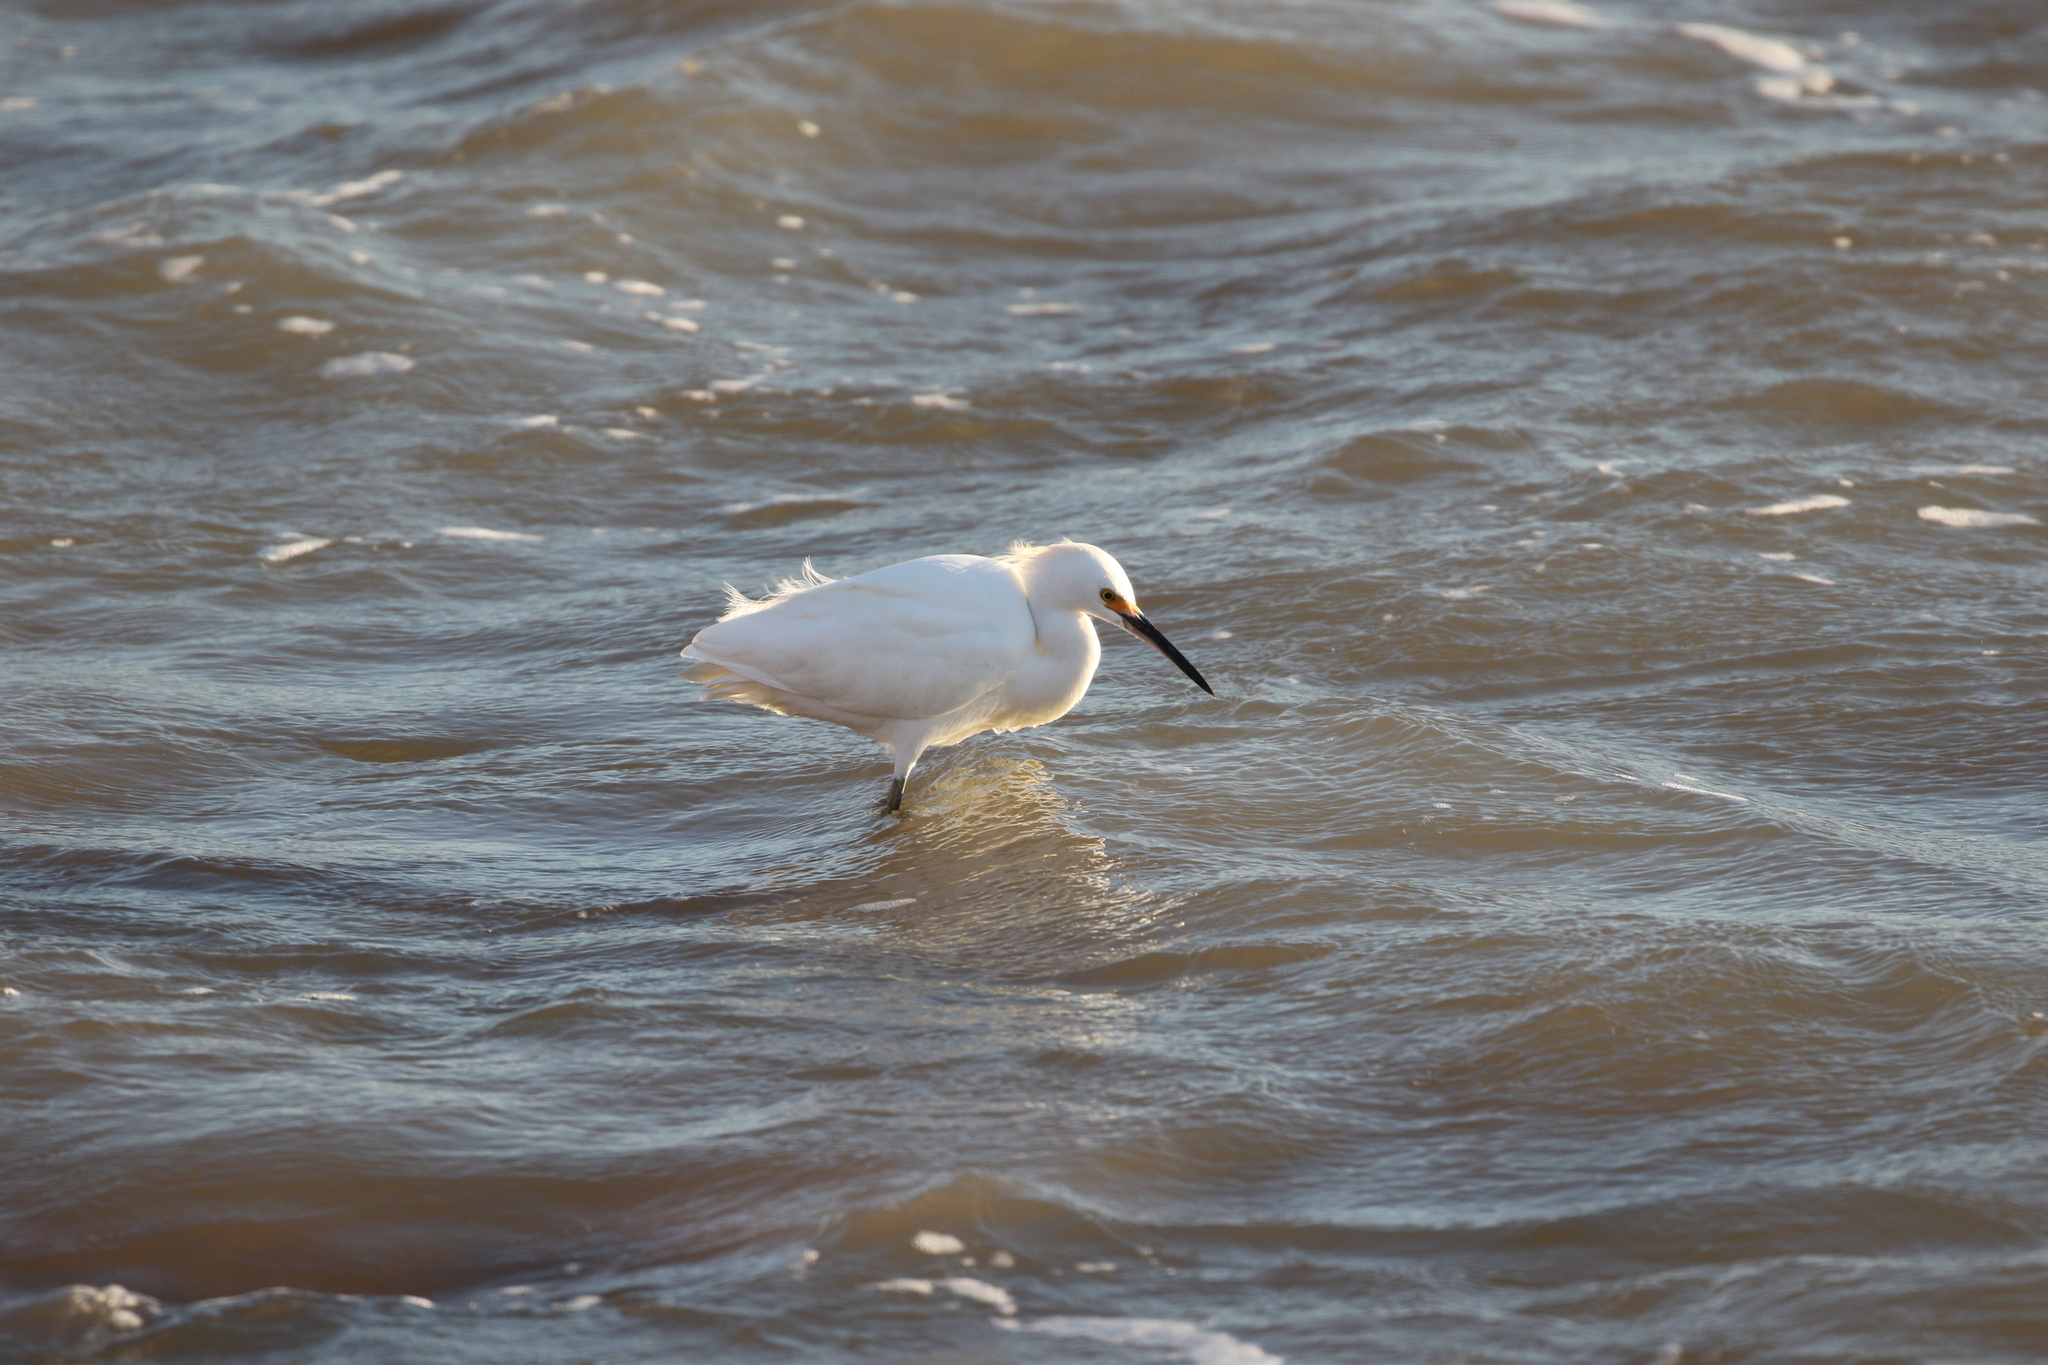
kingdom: Animalia
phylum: Chordata
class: Aves
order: Pelecaniformes
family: Ardeidae
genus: Egretta
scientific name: Egretta thula
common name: Snowy egret
